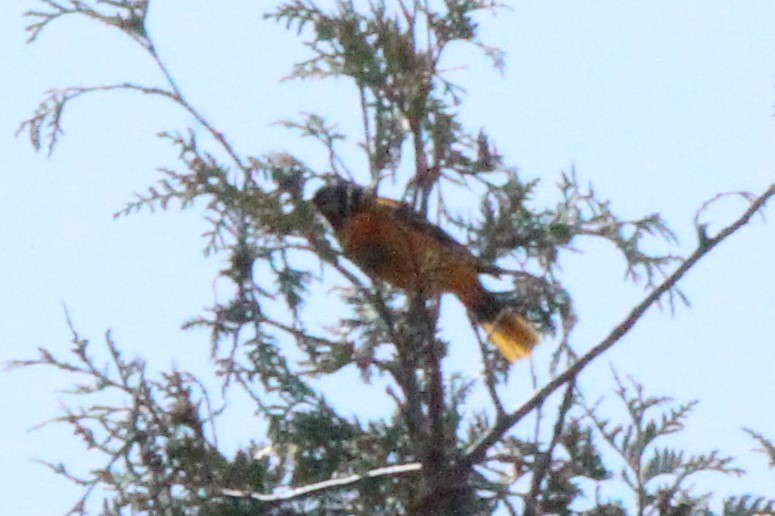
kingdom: Animalia
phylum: Chordata
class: Aves
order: Passeriformes
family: Icteridae
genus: Icterus
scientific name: Icterus galbula
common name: Baltimore oriole
